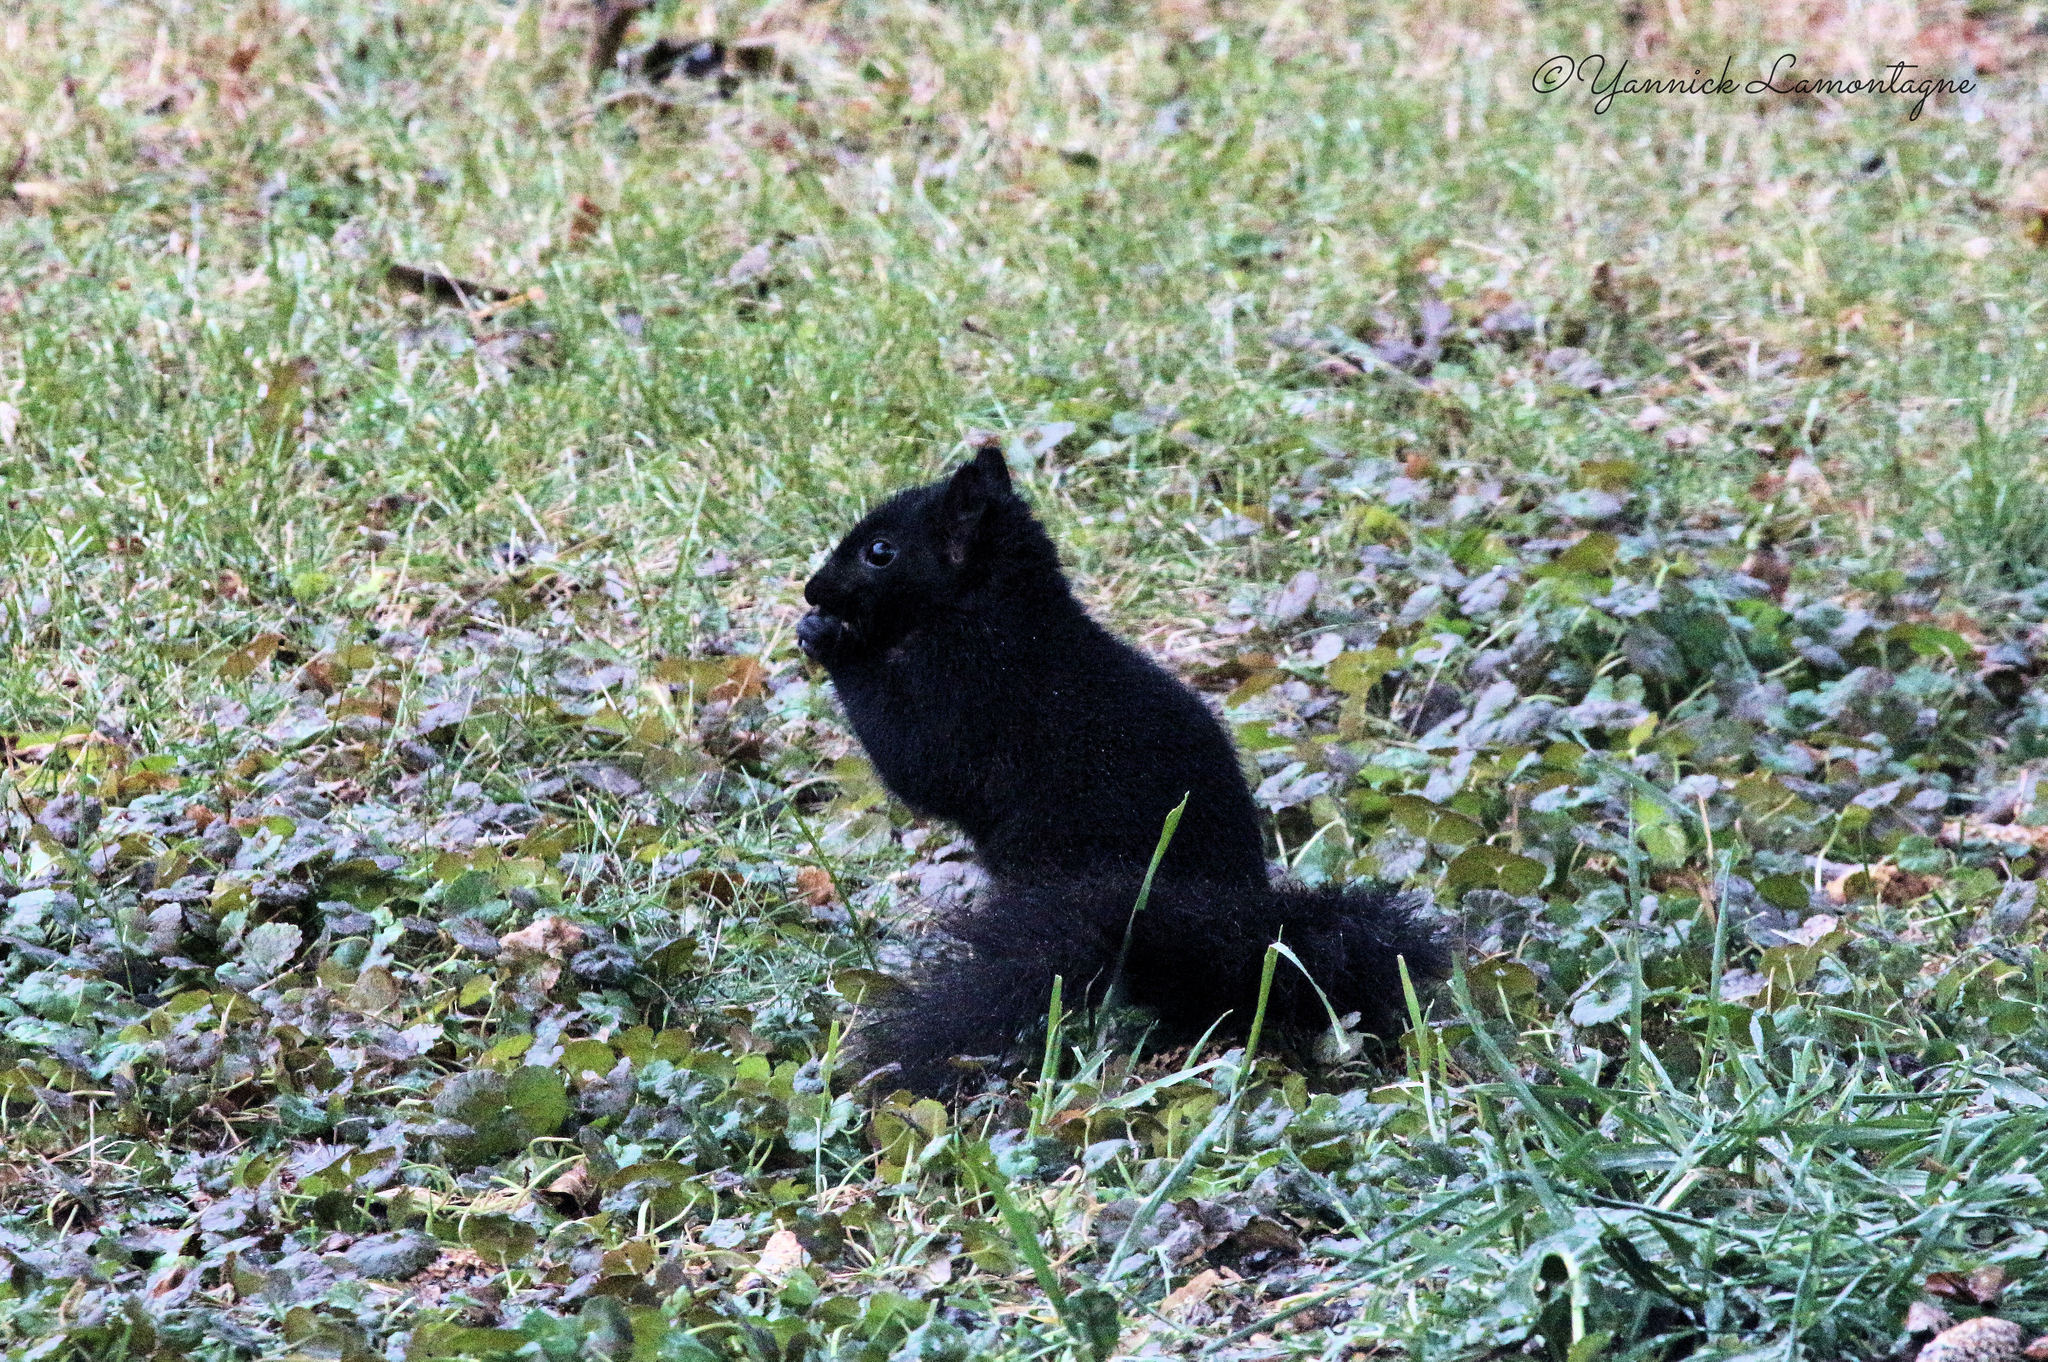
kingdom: Animalia
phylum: Chordata
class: Mammalia
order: Rodentia
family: Sciuridae
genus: Sciurus
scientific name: Sciurus carolinensis
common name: Eastern gray squirrel
